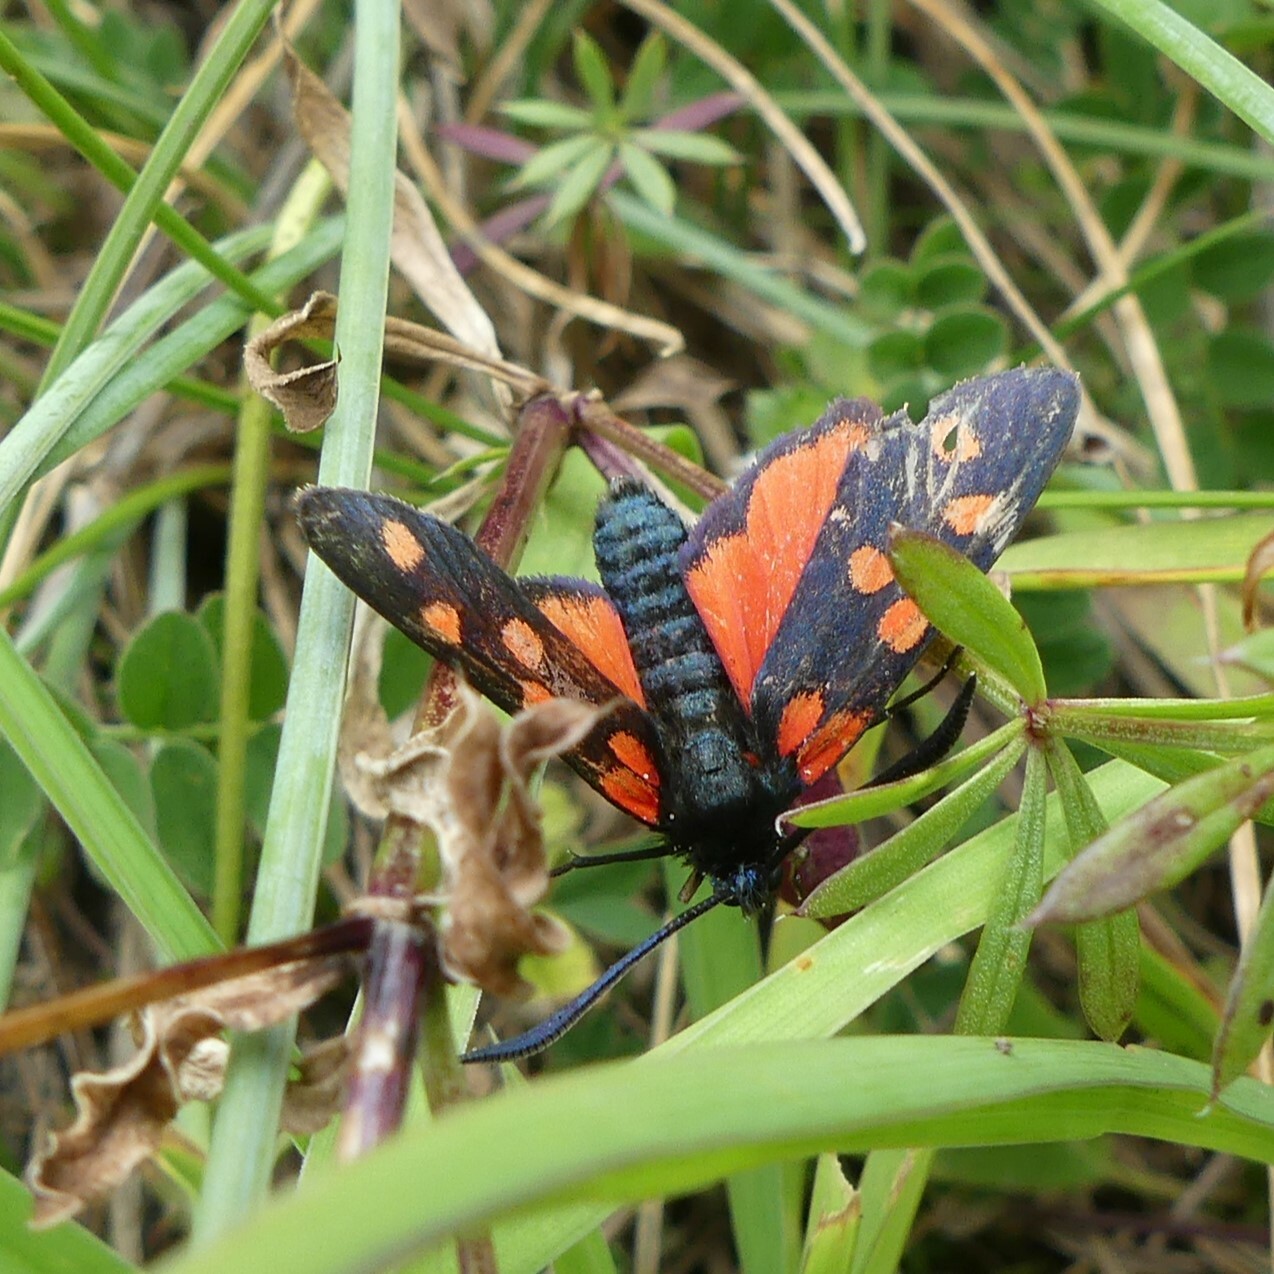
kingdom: Animalia
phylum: Arthropoda
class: Insecta
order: Lepidoptera
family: Zygaenidae
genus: Zygaena
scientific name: Zygaena transalpina
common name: Southern six spot burnet
